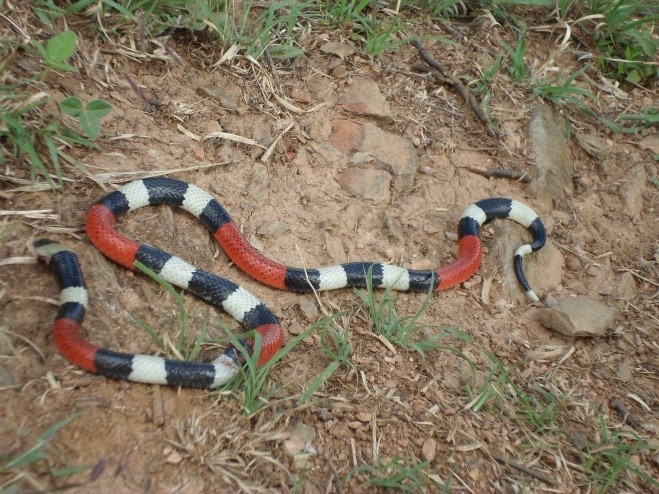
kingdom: Animalia
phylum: Chordata
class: Squamata
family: Elapidae
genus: Micrurus
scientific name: Micrurus laticollaris
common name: Balsas coral snake
